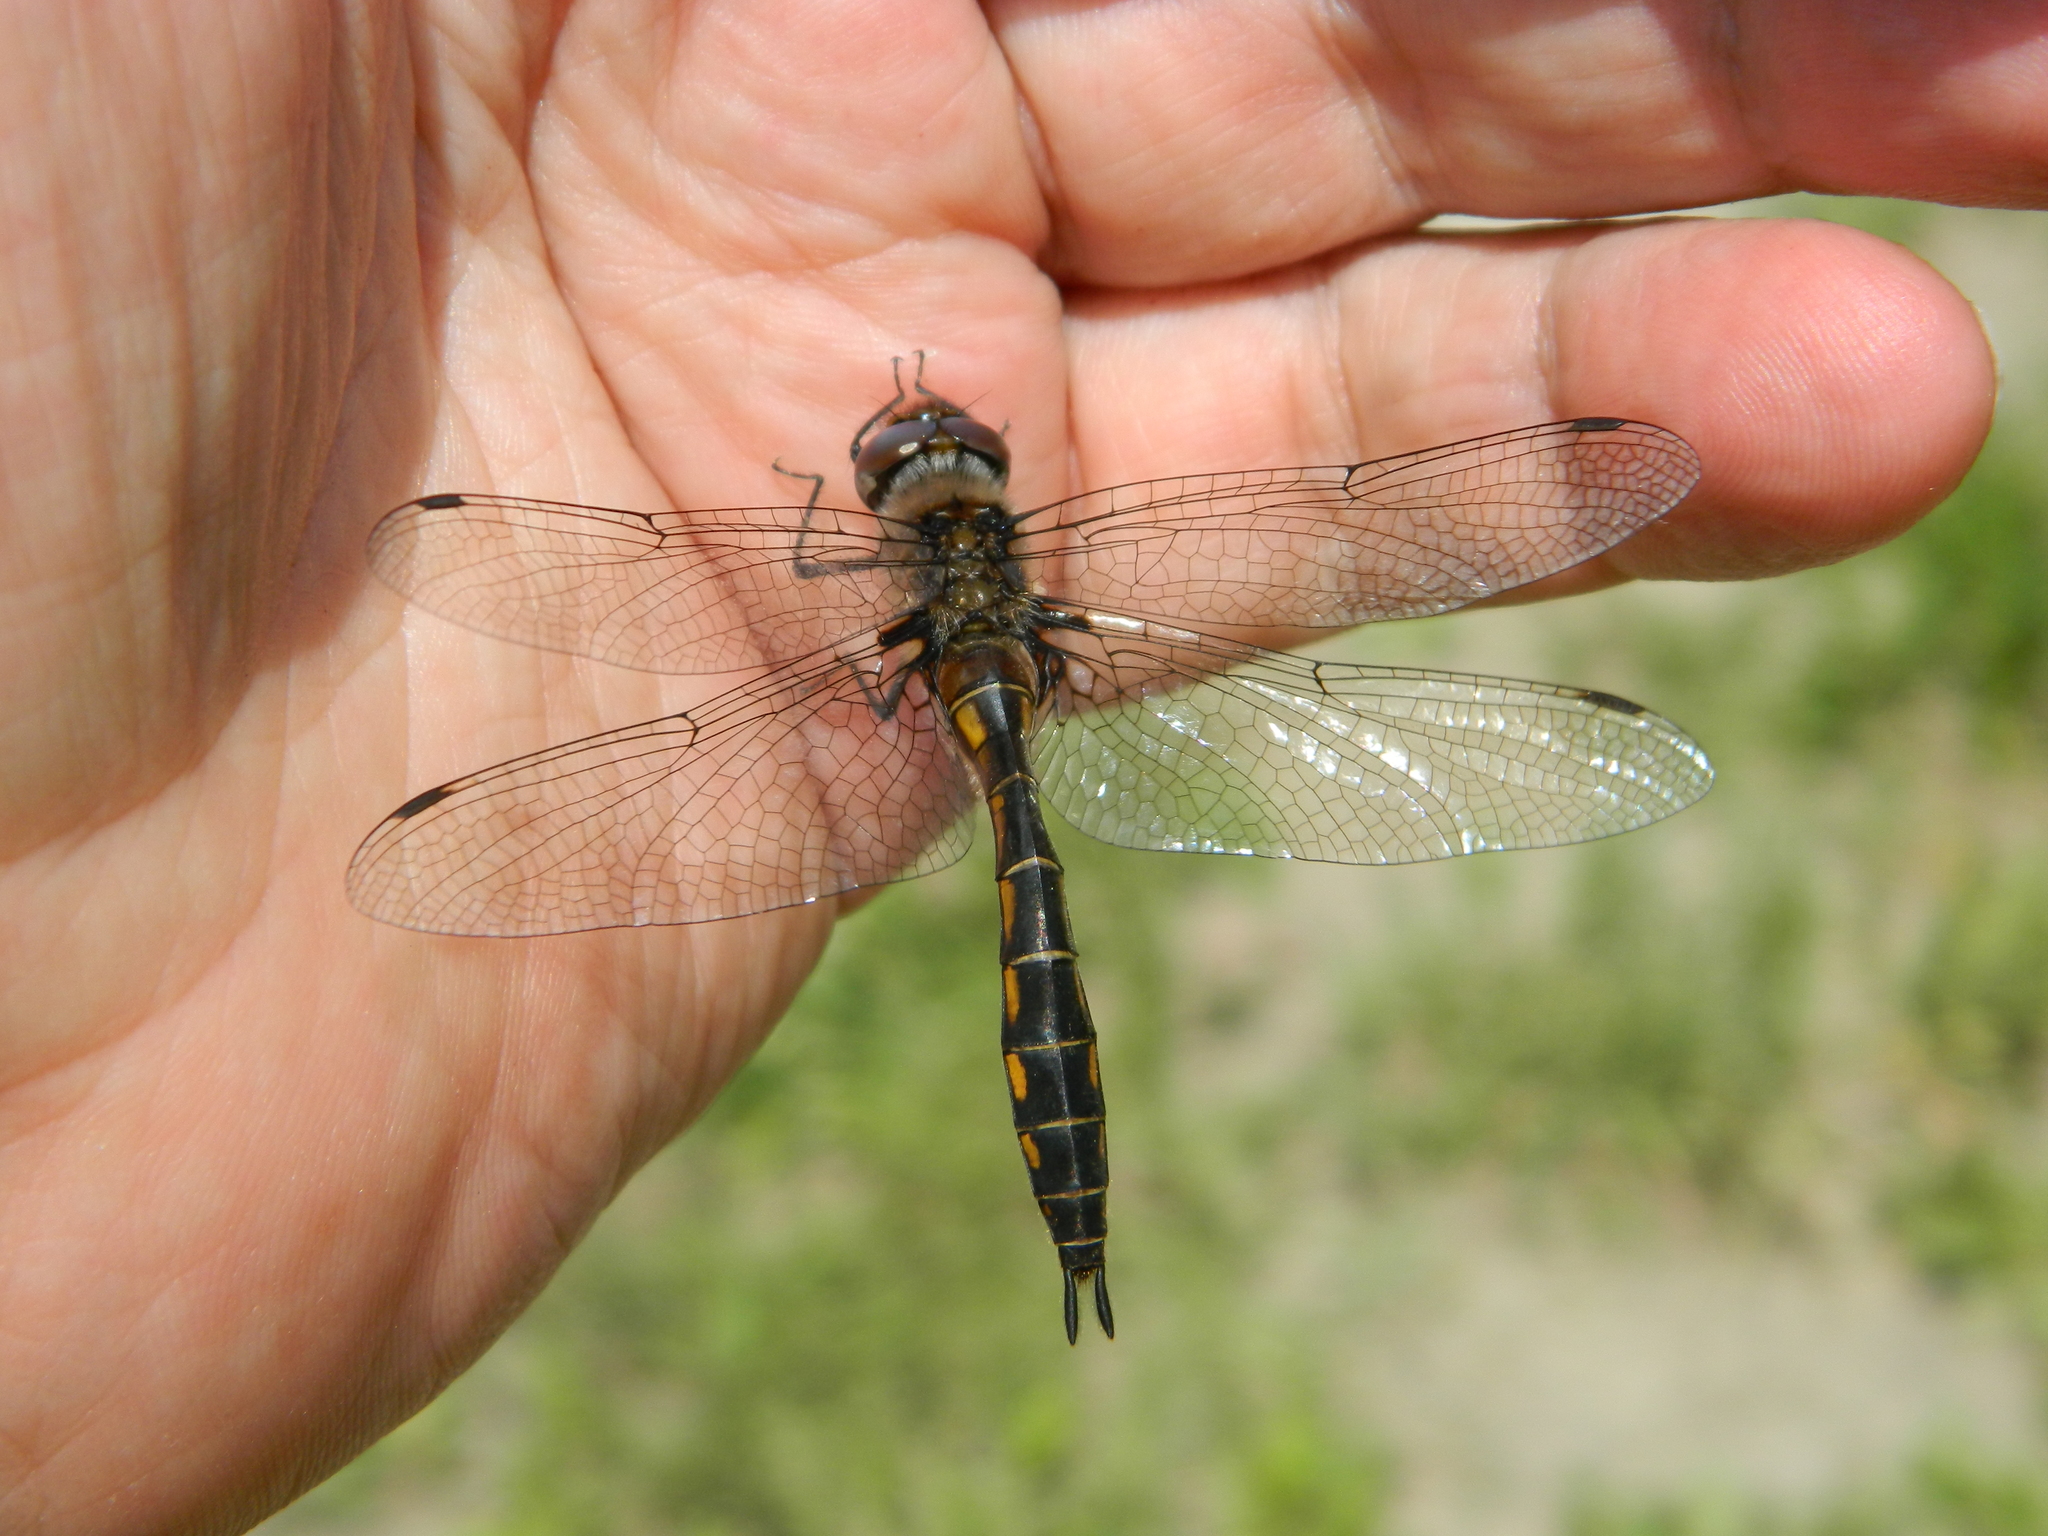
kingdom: Animalia
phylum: Arthropoda
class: Insecta
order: Odonata
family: Corduliidae
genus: Epitheca
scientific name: Epitheca spinigera
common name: Spiny baskettail
